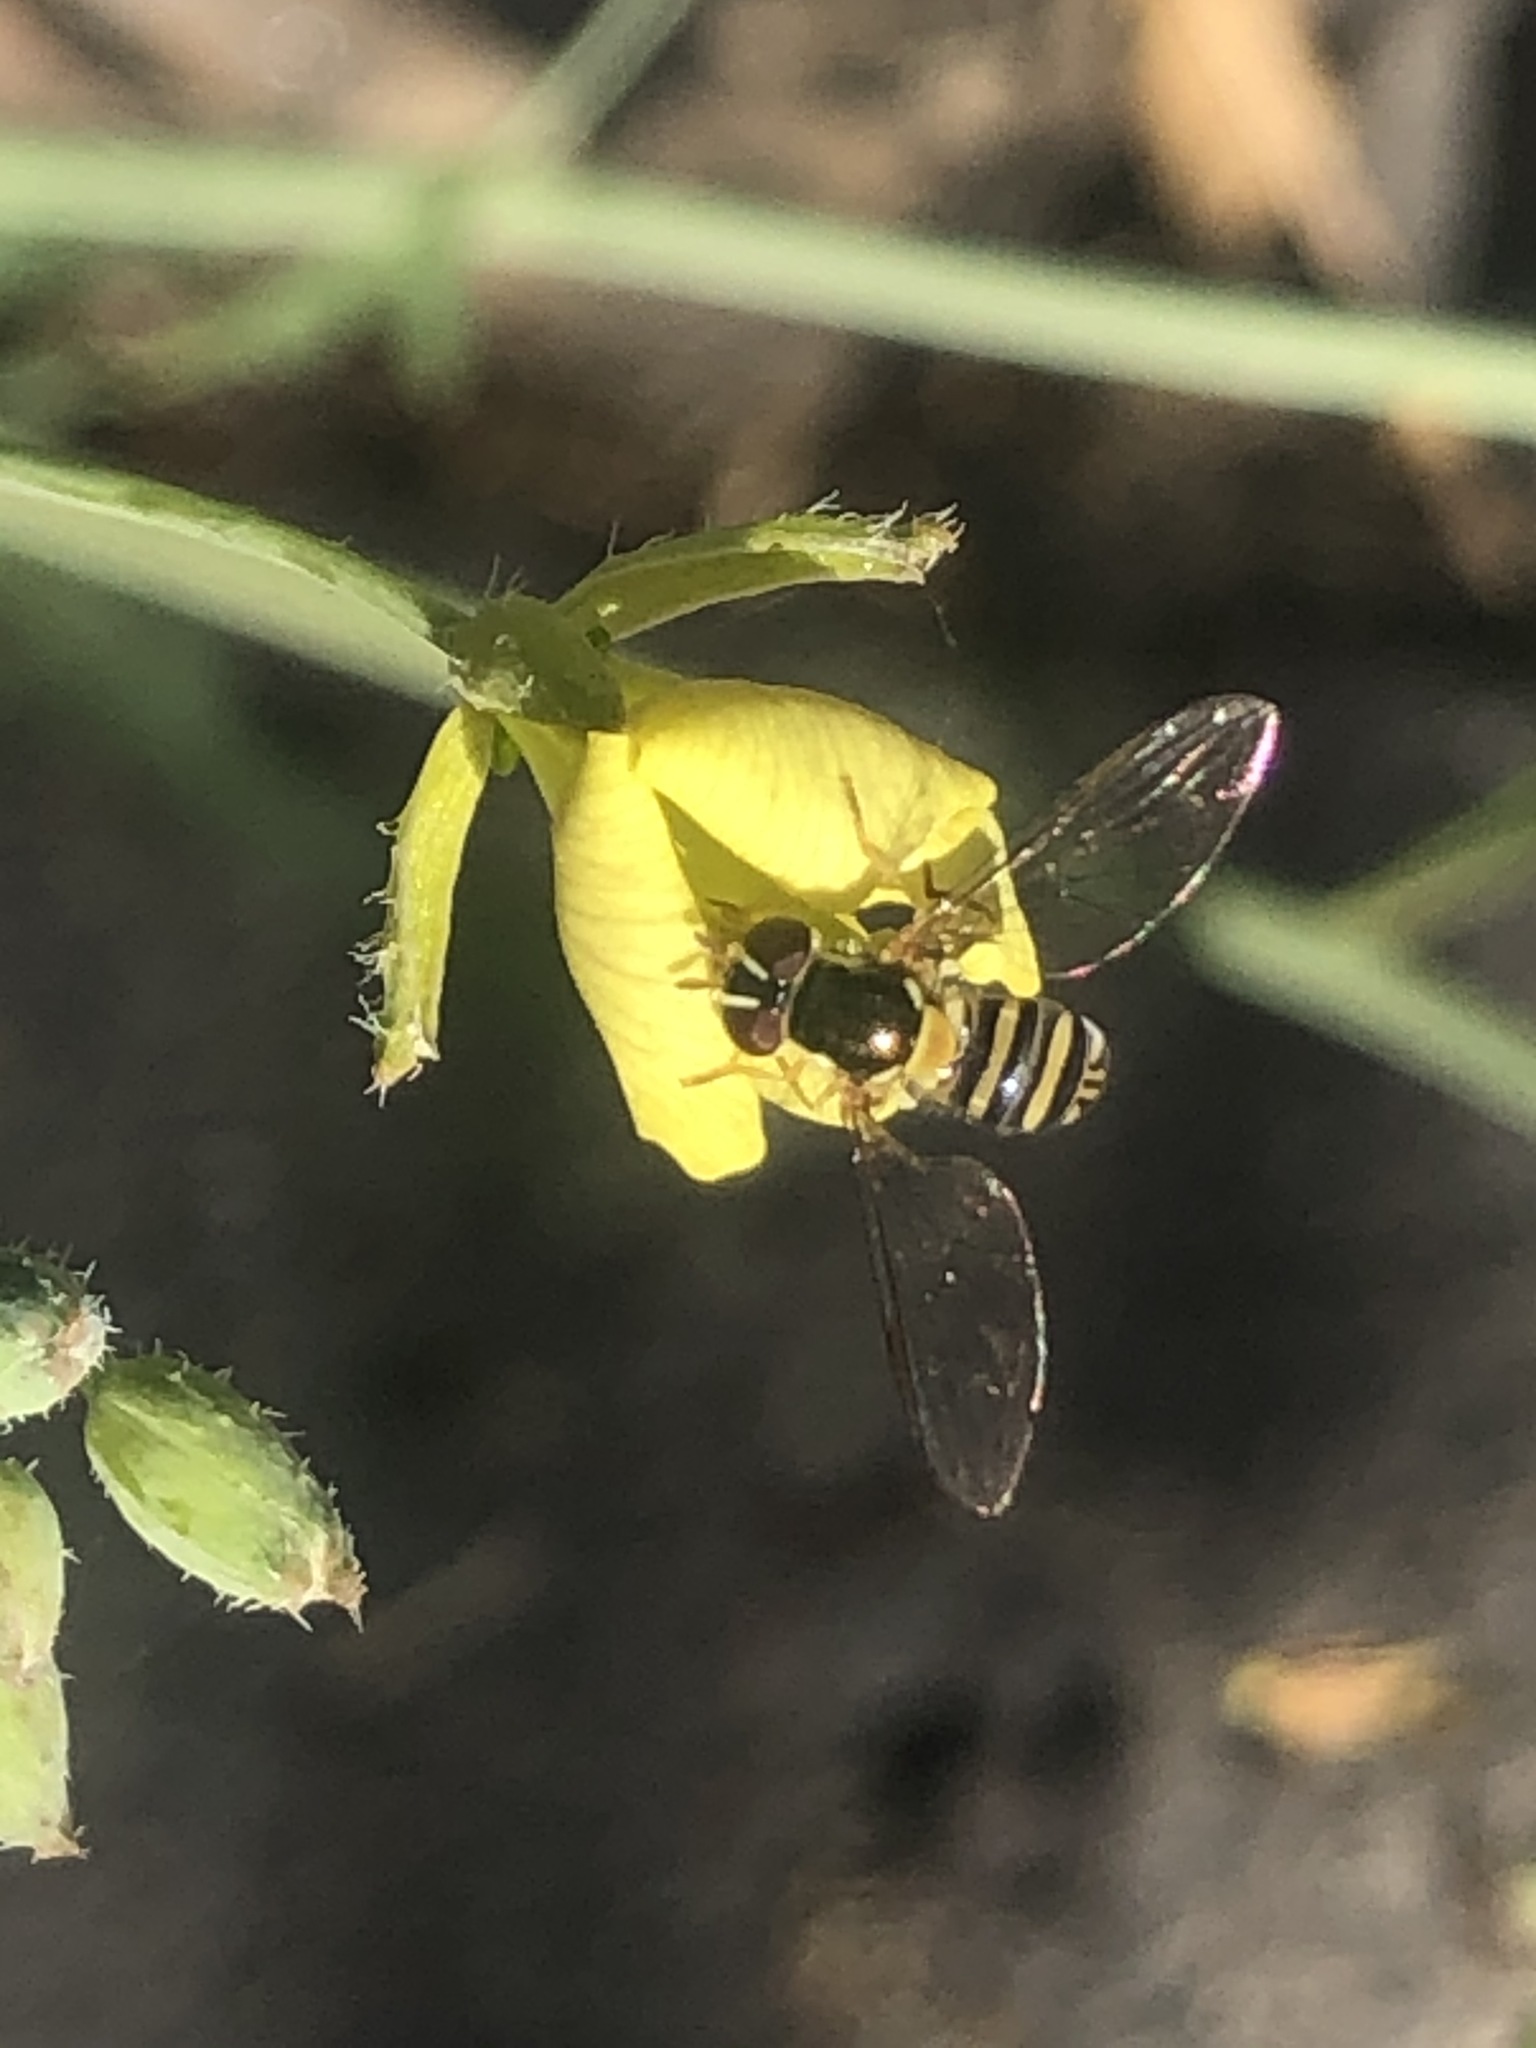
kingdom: Animalia
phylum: Arthropoda
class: Insecta
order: Diptera
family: Syrphidae
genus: Allograpta
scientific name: Allograpta obliqua
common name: Common oblique syrphid
